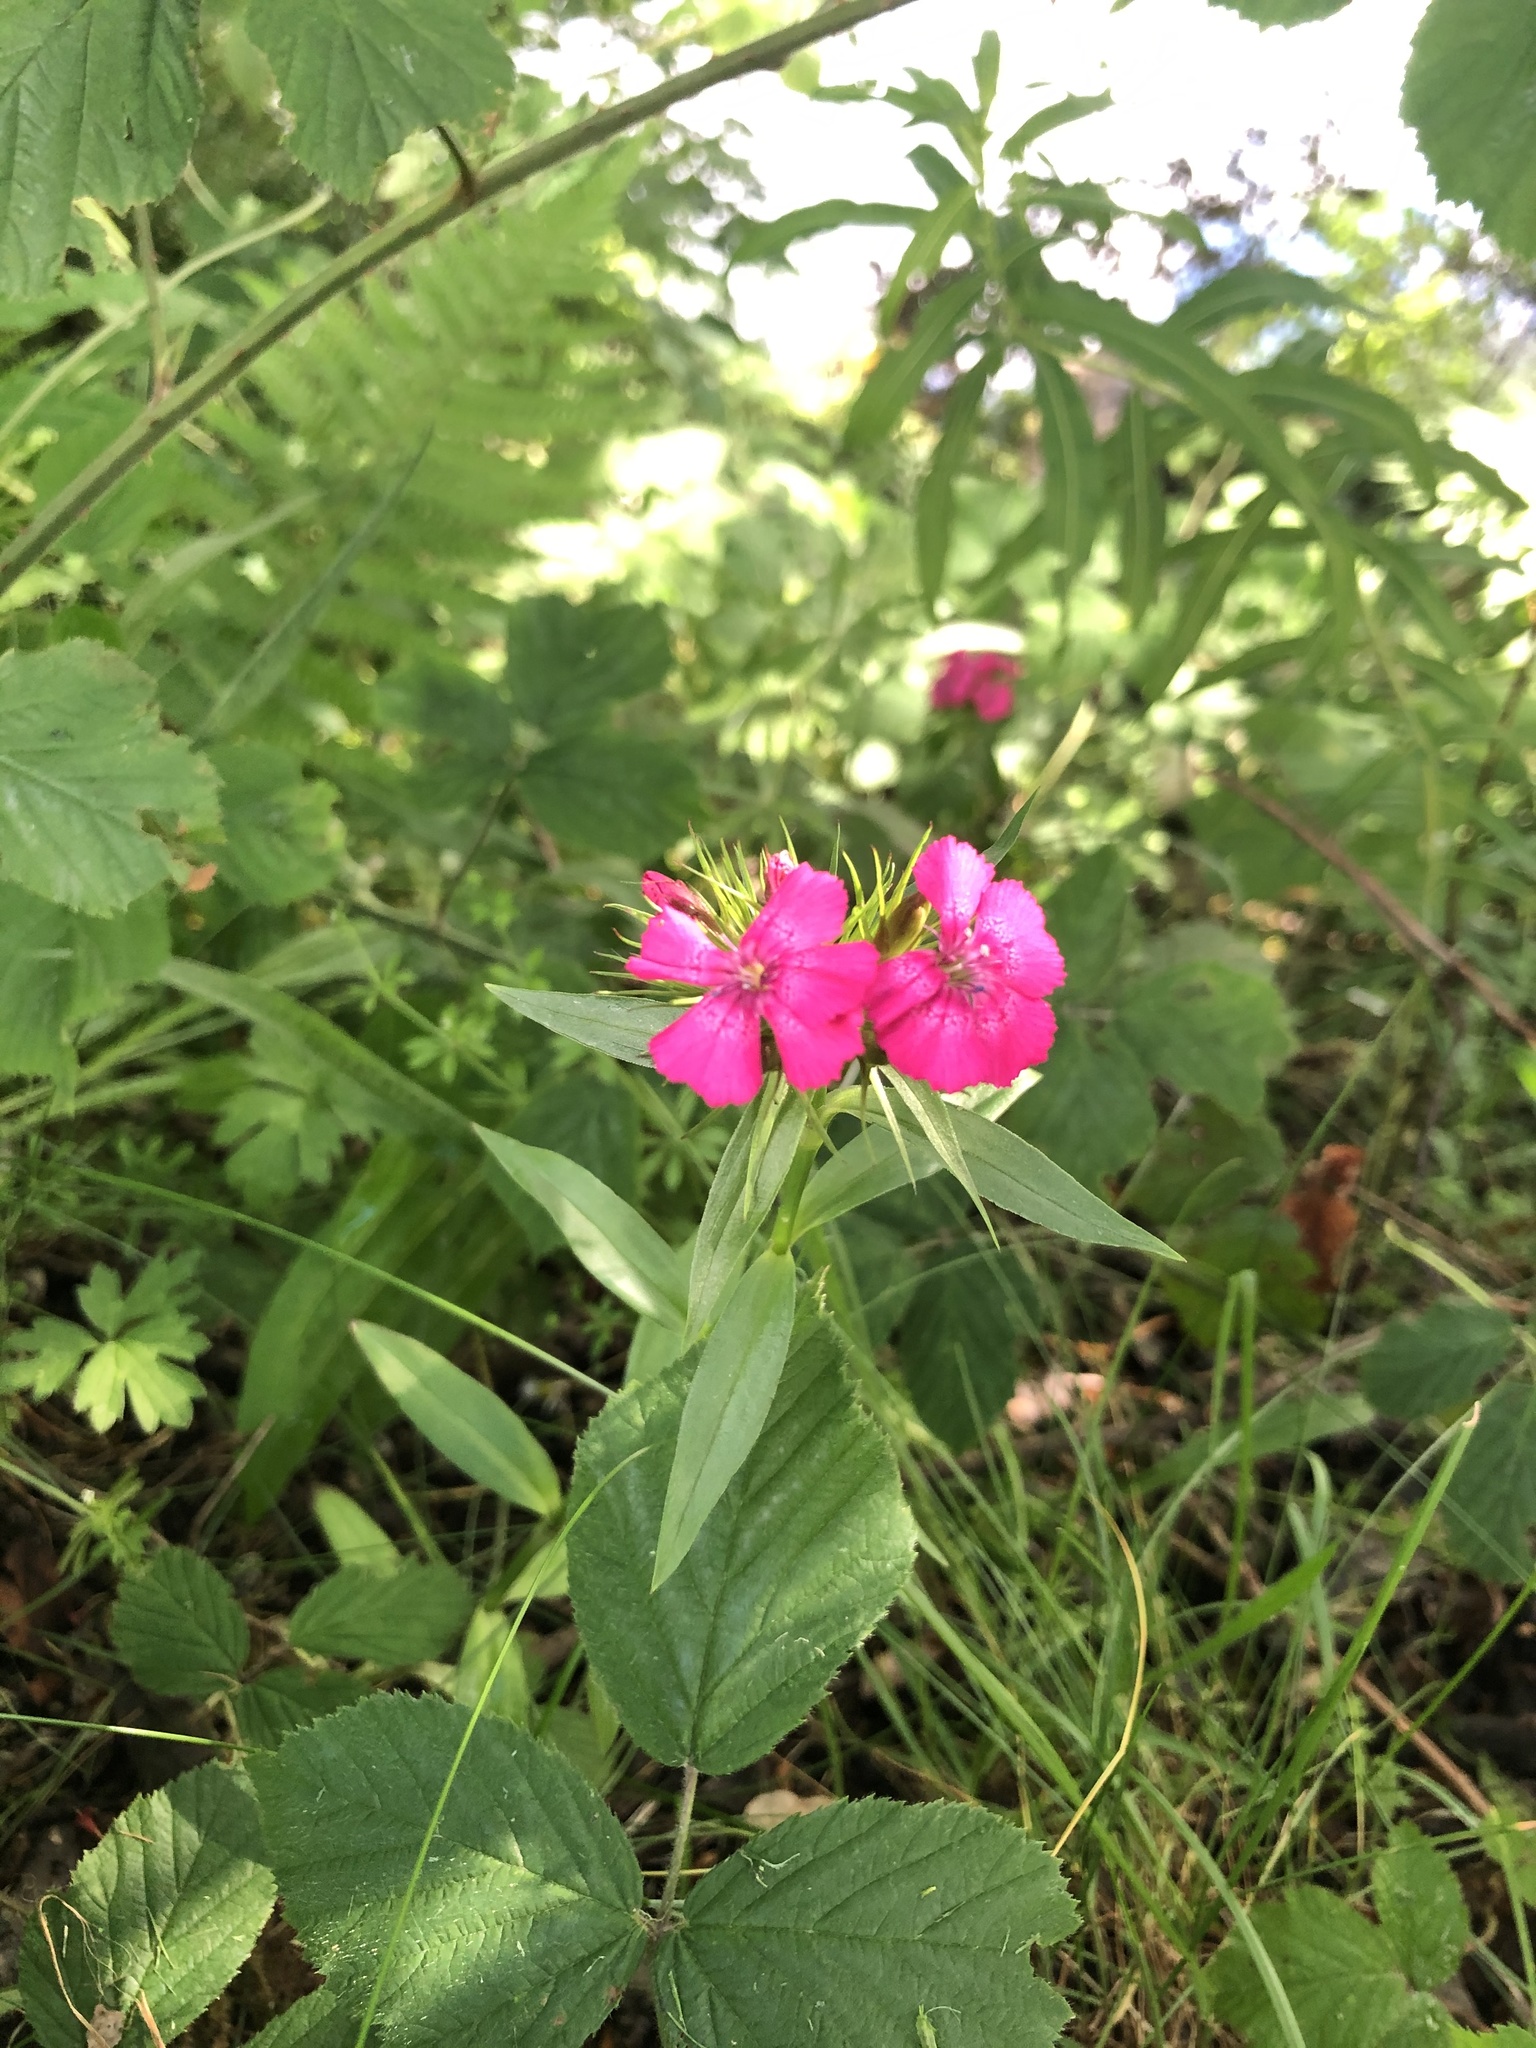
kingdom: Plantae
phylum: Tracheophyta
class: Magnoliopsida
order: Caryophyllales
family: Caryophyllaceae
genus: Dianthus
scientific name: Dianthus barbatus
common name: Sweet-william
